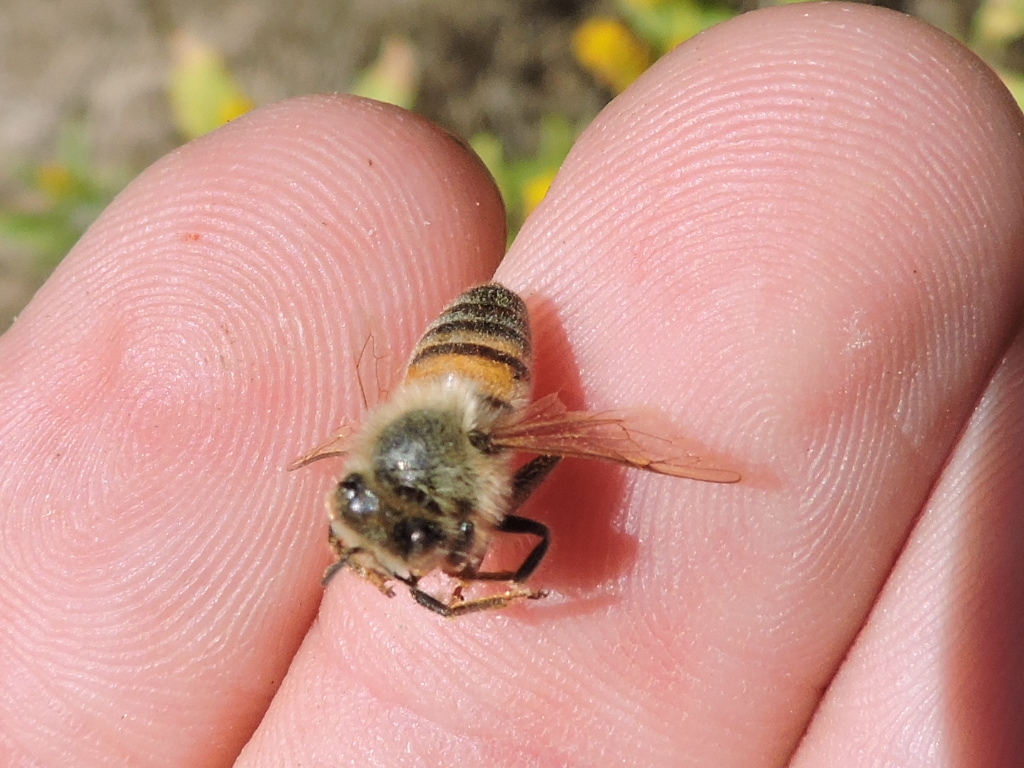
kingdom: Animalia
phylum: Arthropoda
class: Insecta
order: Hymenoptera
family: Apidae
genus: Apis
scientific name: Apis mellifera
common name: Honey bee
